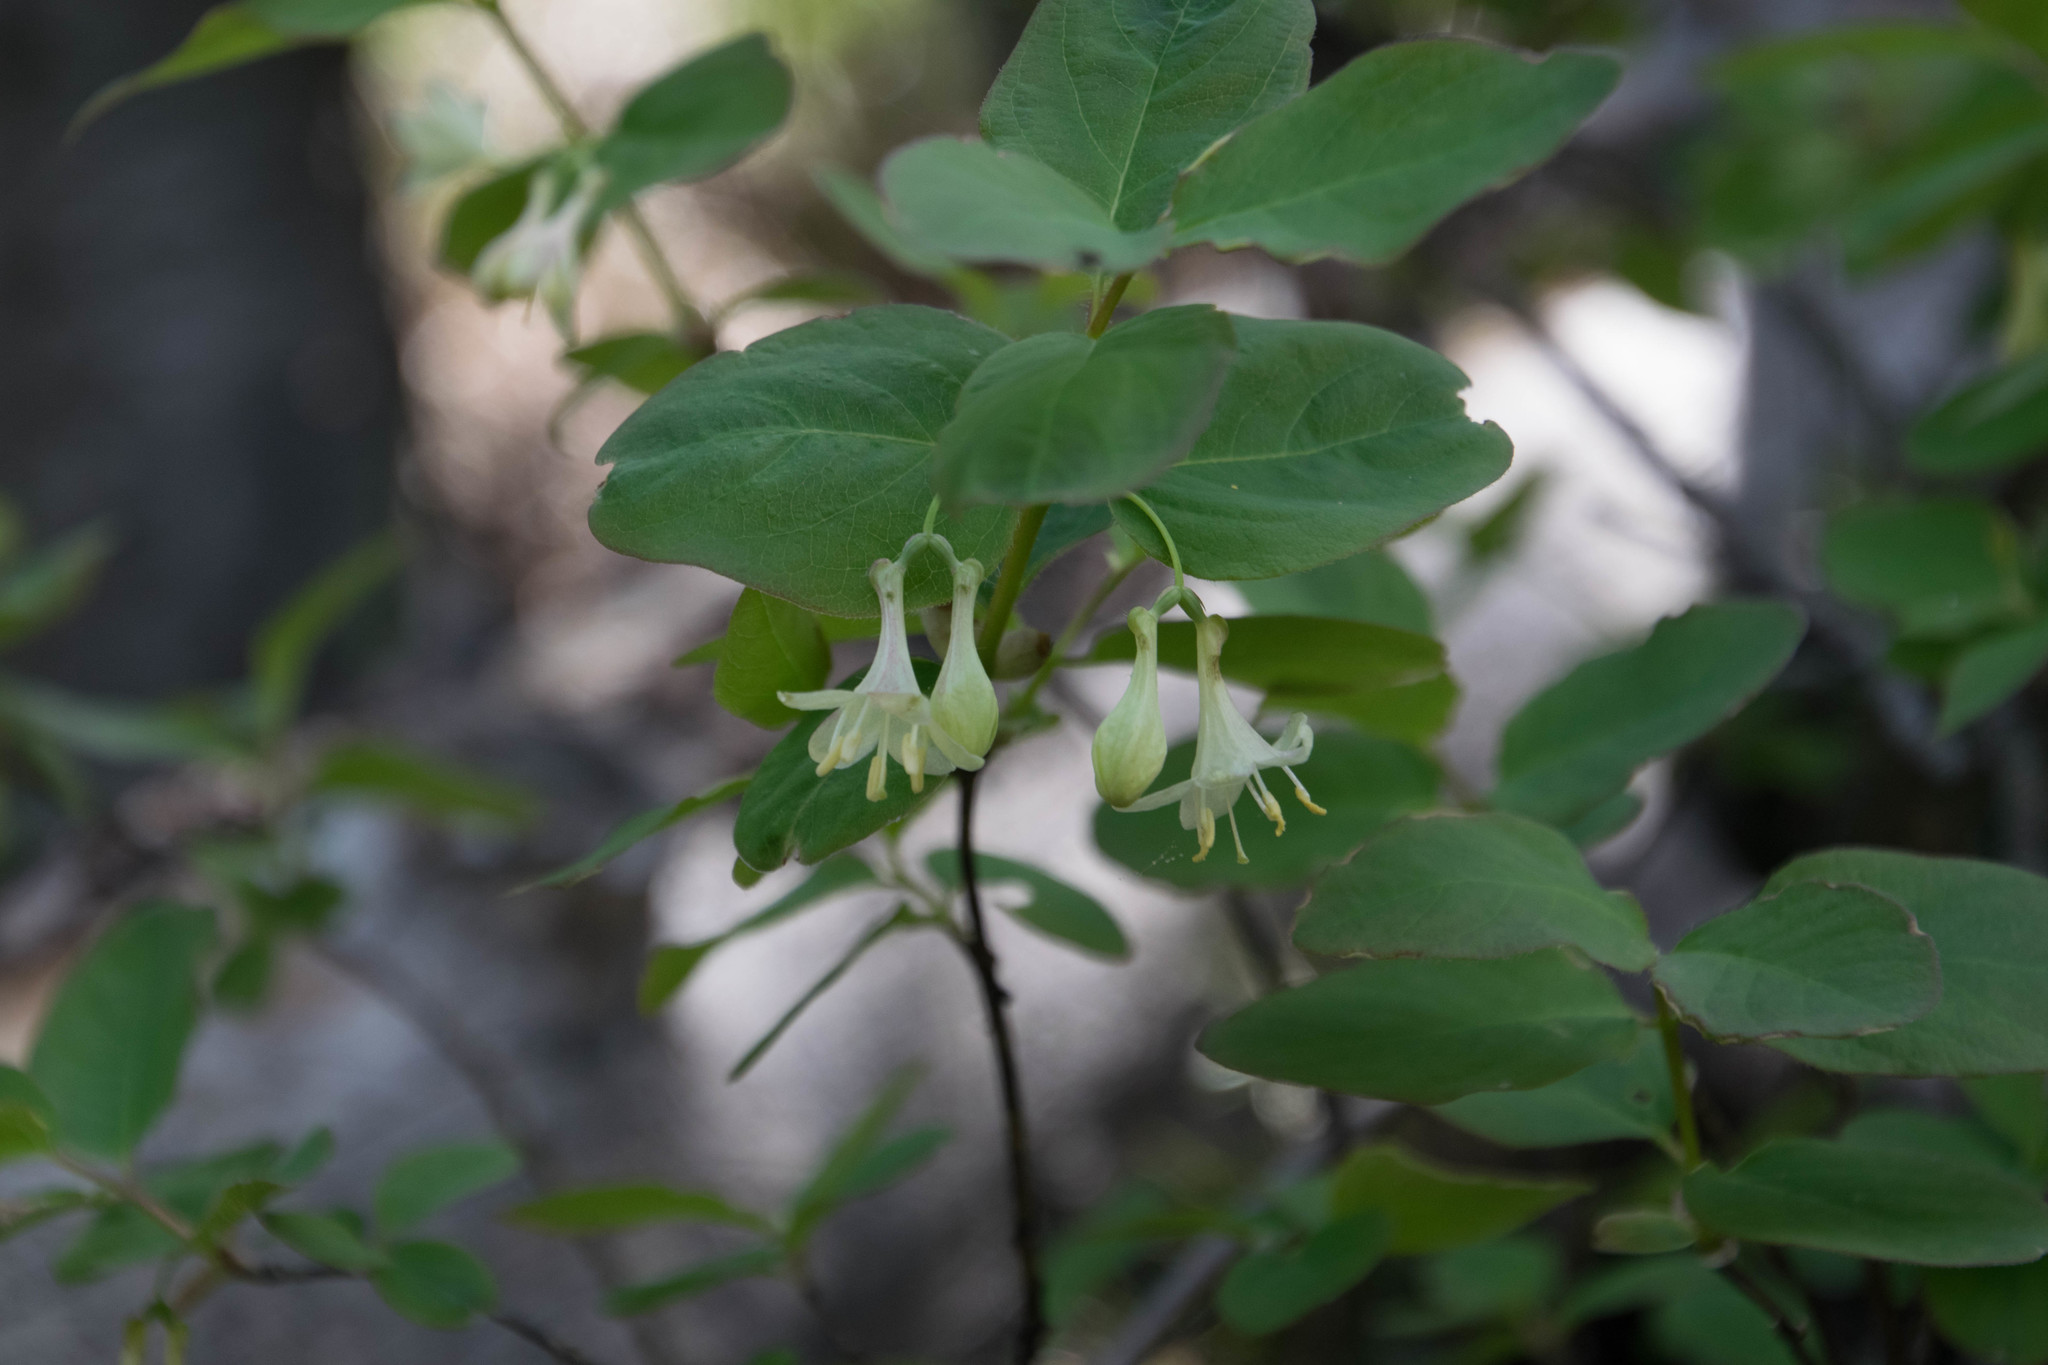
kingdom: Plantae
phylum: Tracheophyta
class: Magnoliopsida
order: Dipsacales
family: Caprifoliaceae
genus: Lonicera
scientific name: Lonicera utahensis
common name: Utah honeysuckle
